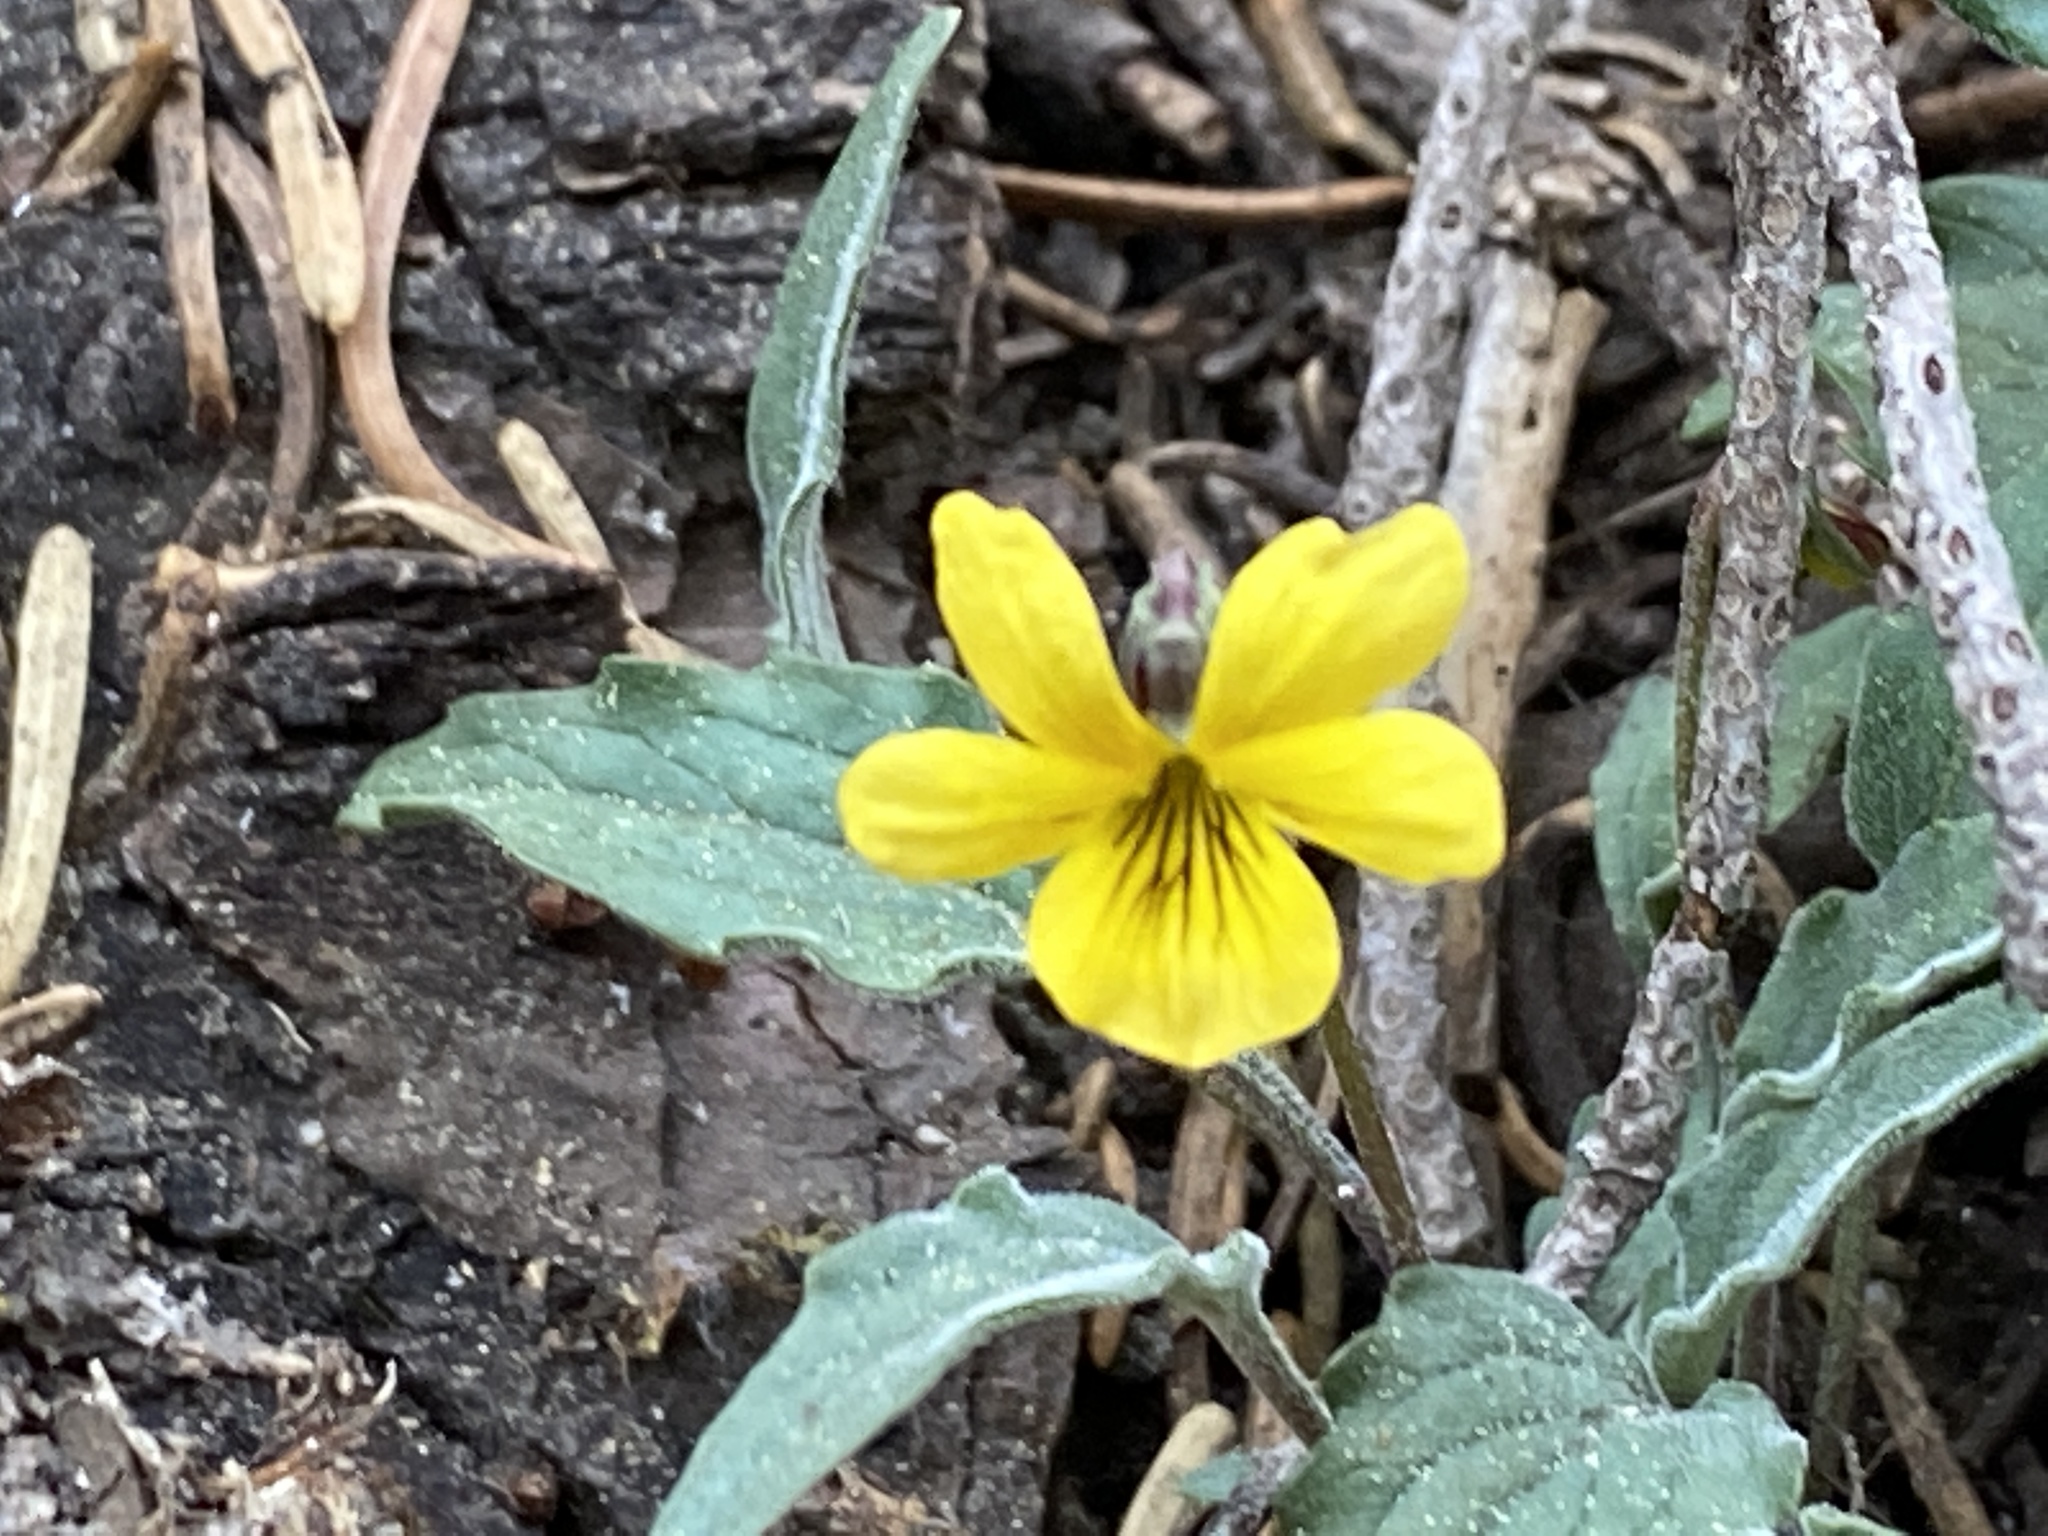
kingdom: Plantae
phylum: Tracheophyta
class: Magnoliopsida
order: Malpighiales
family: Violaceae
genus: Viola
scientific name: Viola pinetorum
